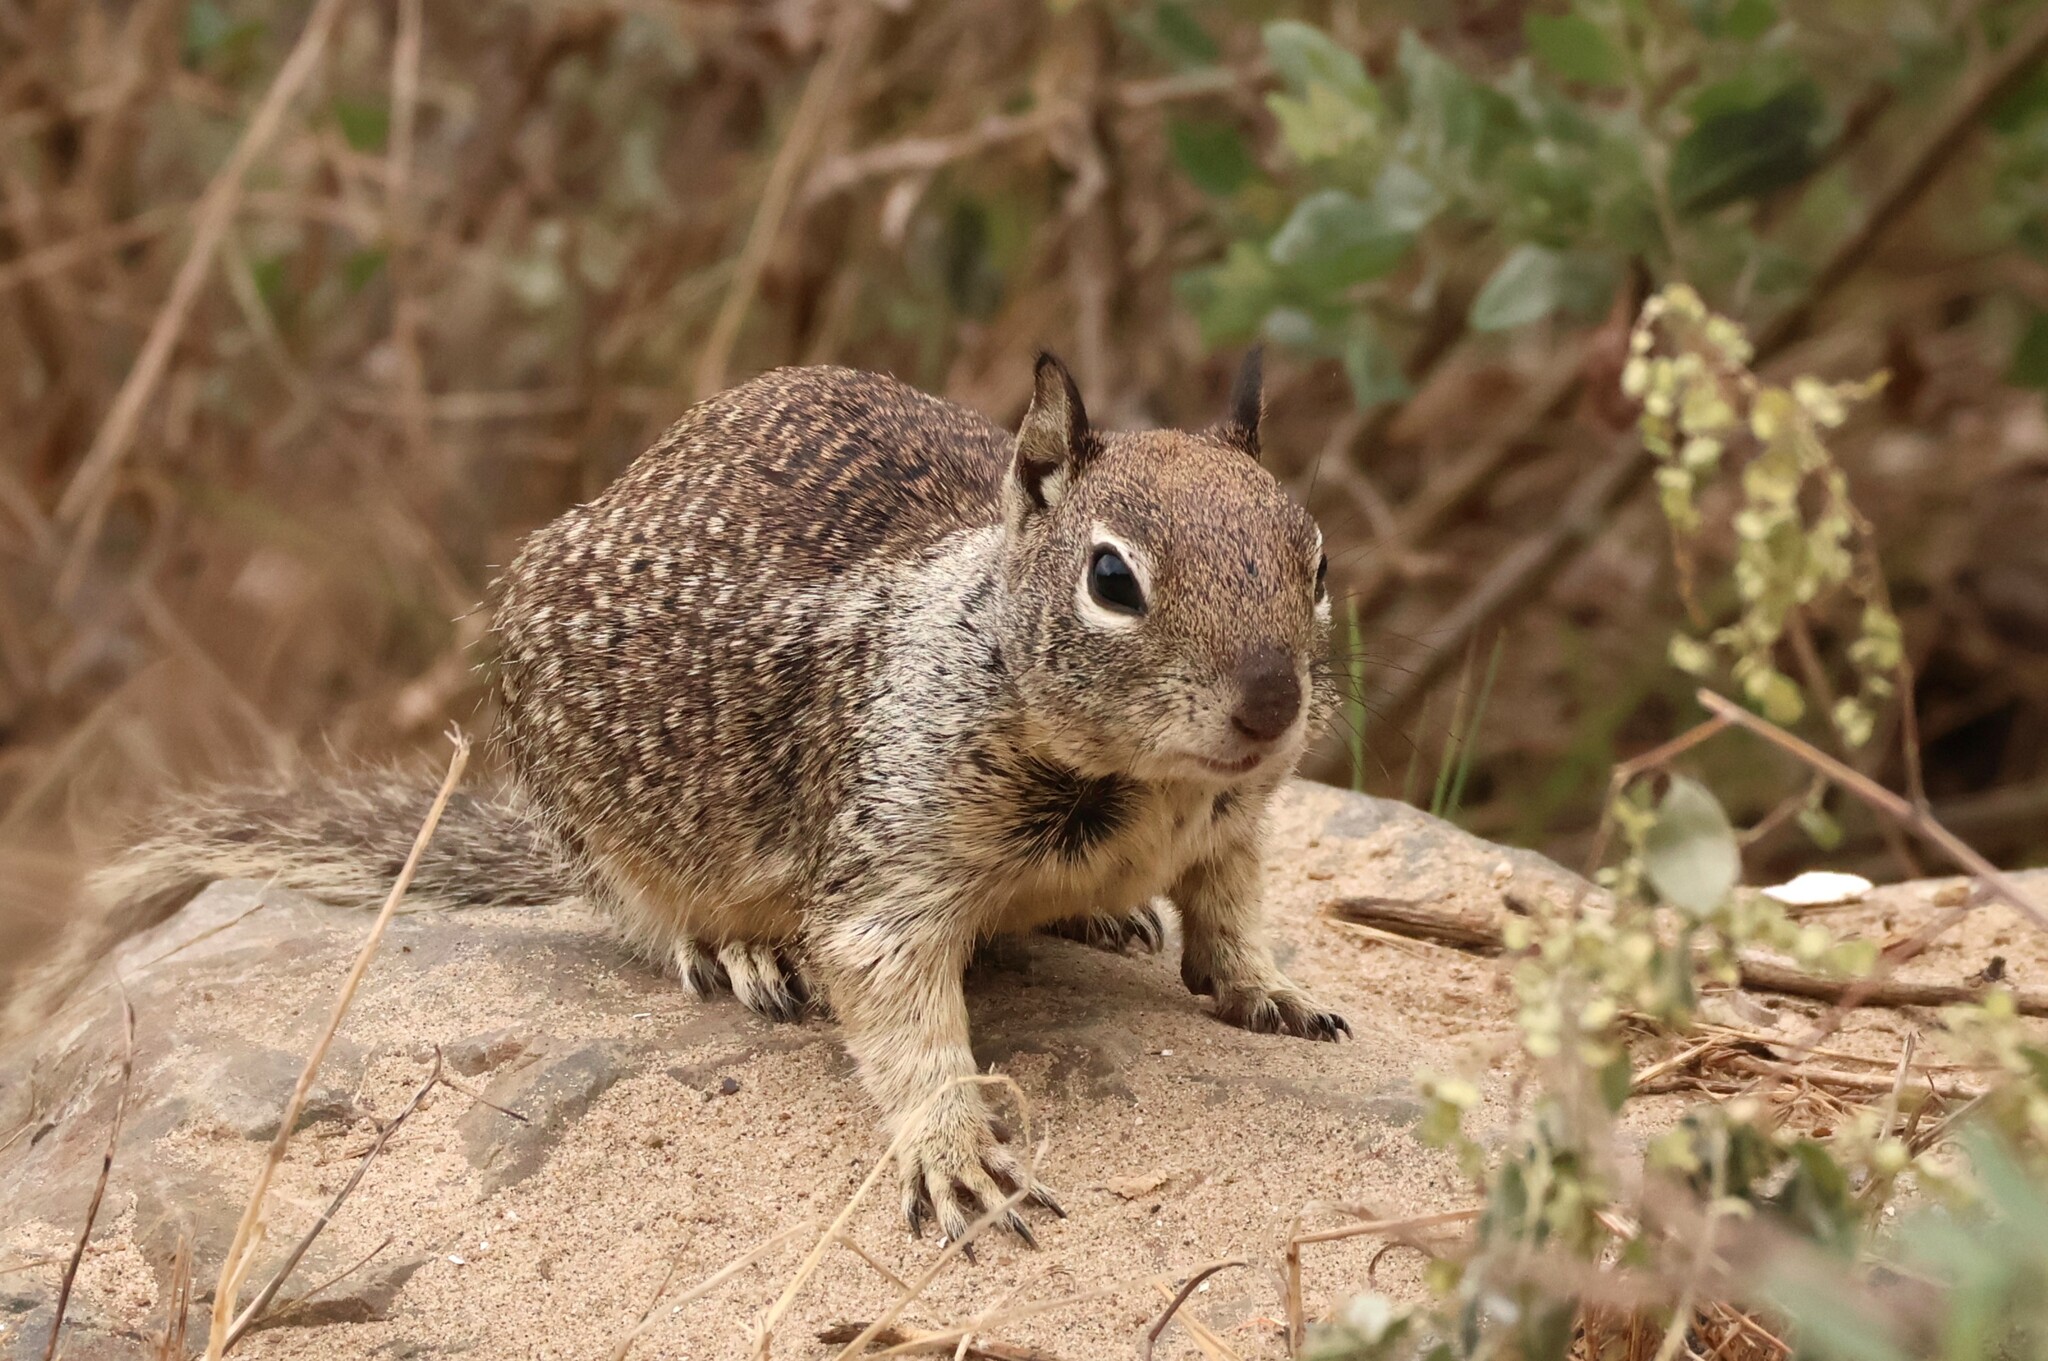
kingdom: Animalia
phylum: Chordata
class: Mammalia
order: Rodentia
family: Sciuridae
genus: Otospermophilus
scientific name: Otospermophilus beecheyi
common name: California ground squirrel
